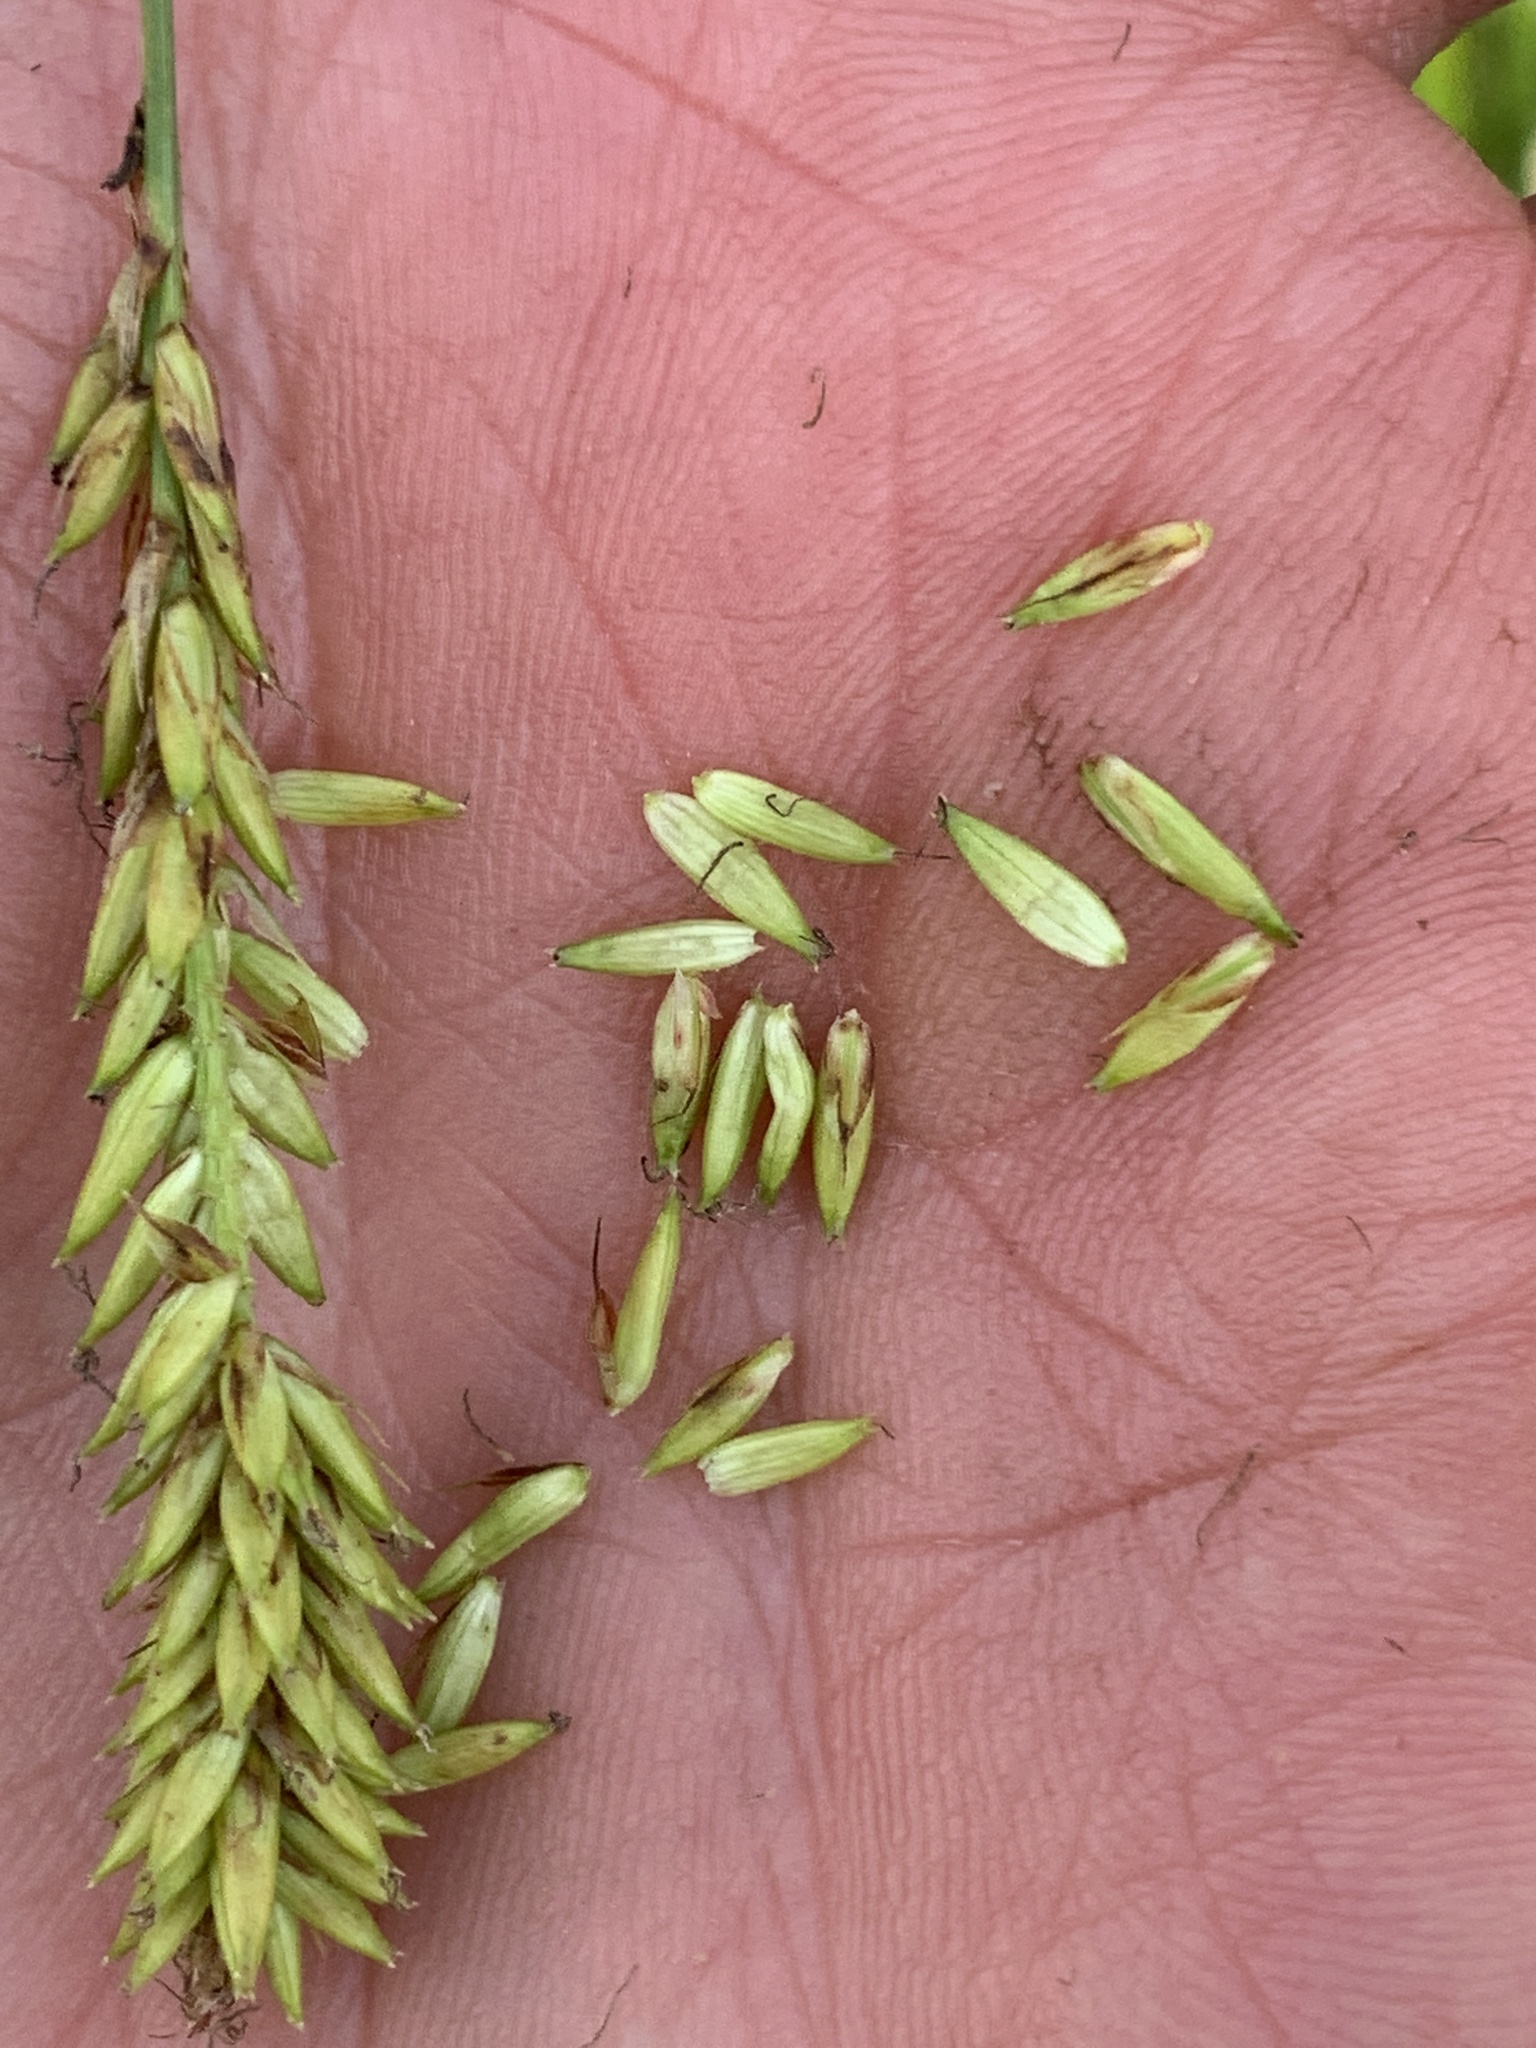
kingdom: Plantae
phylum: Tracheophyta
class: Liliopsida
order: Poales
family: Cyperaceae
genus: Carex
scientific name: Carex lacustris
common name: Common lake sedge
